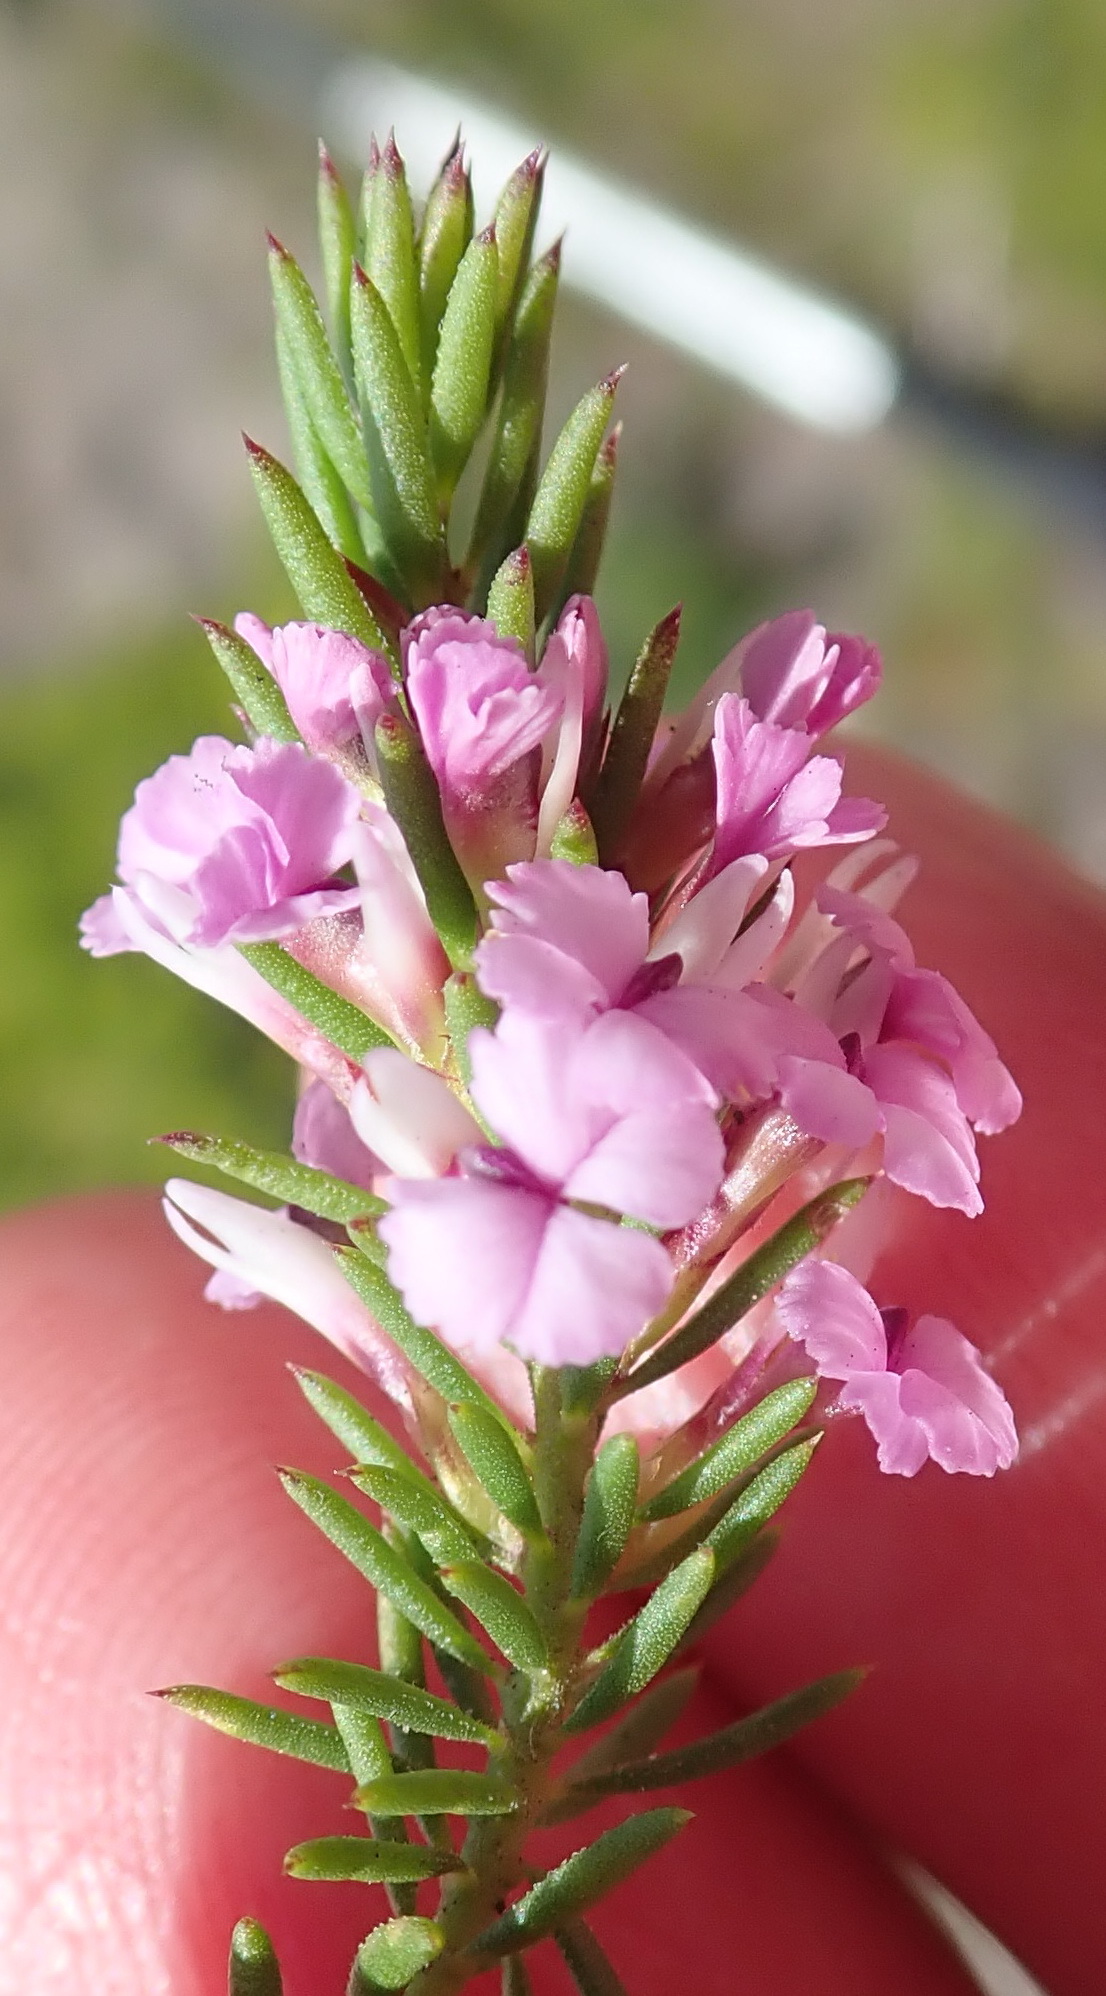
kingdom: Plantae
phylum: Tracheophyta
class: Magnoliopsida
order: Fabales
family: Polygalaceae
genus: Muraltia
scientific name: Muraltia knysnaensis
